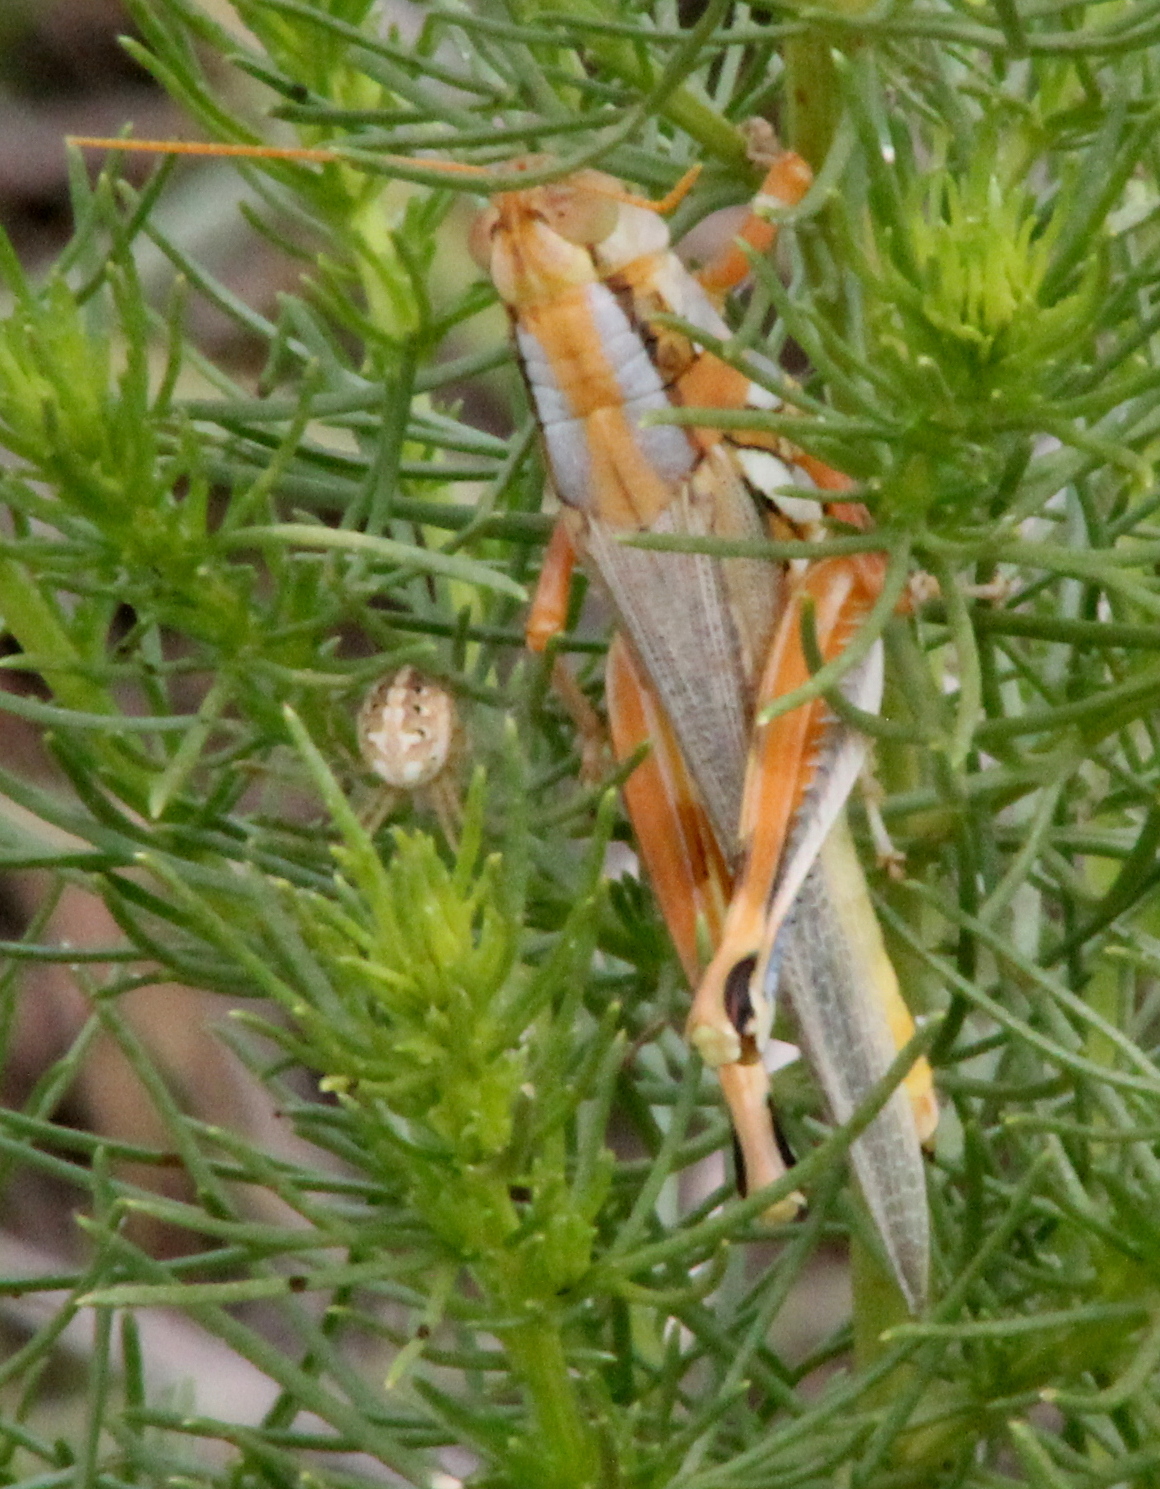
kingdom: Animalia
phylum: Arthropoda
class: Insecta
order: Orthoptera
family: Acrididae
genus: Melanoplus
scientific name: Melanoplus foedus
